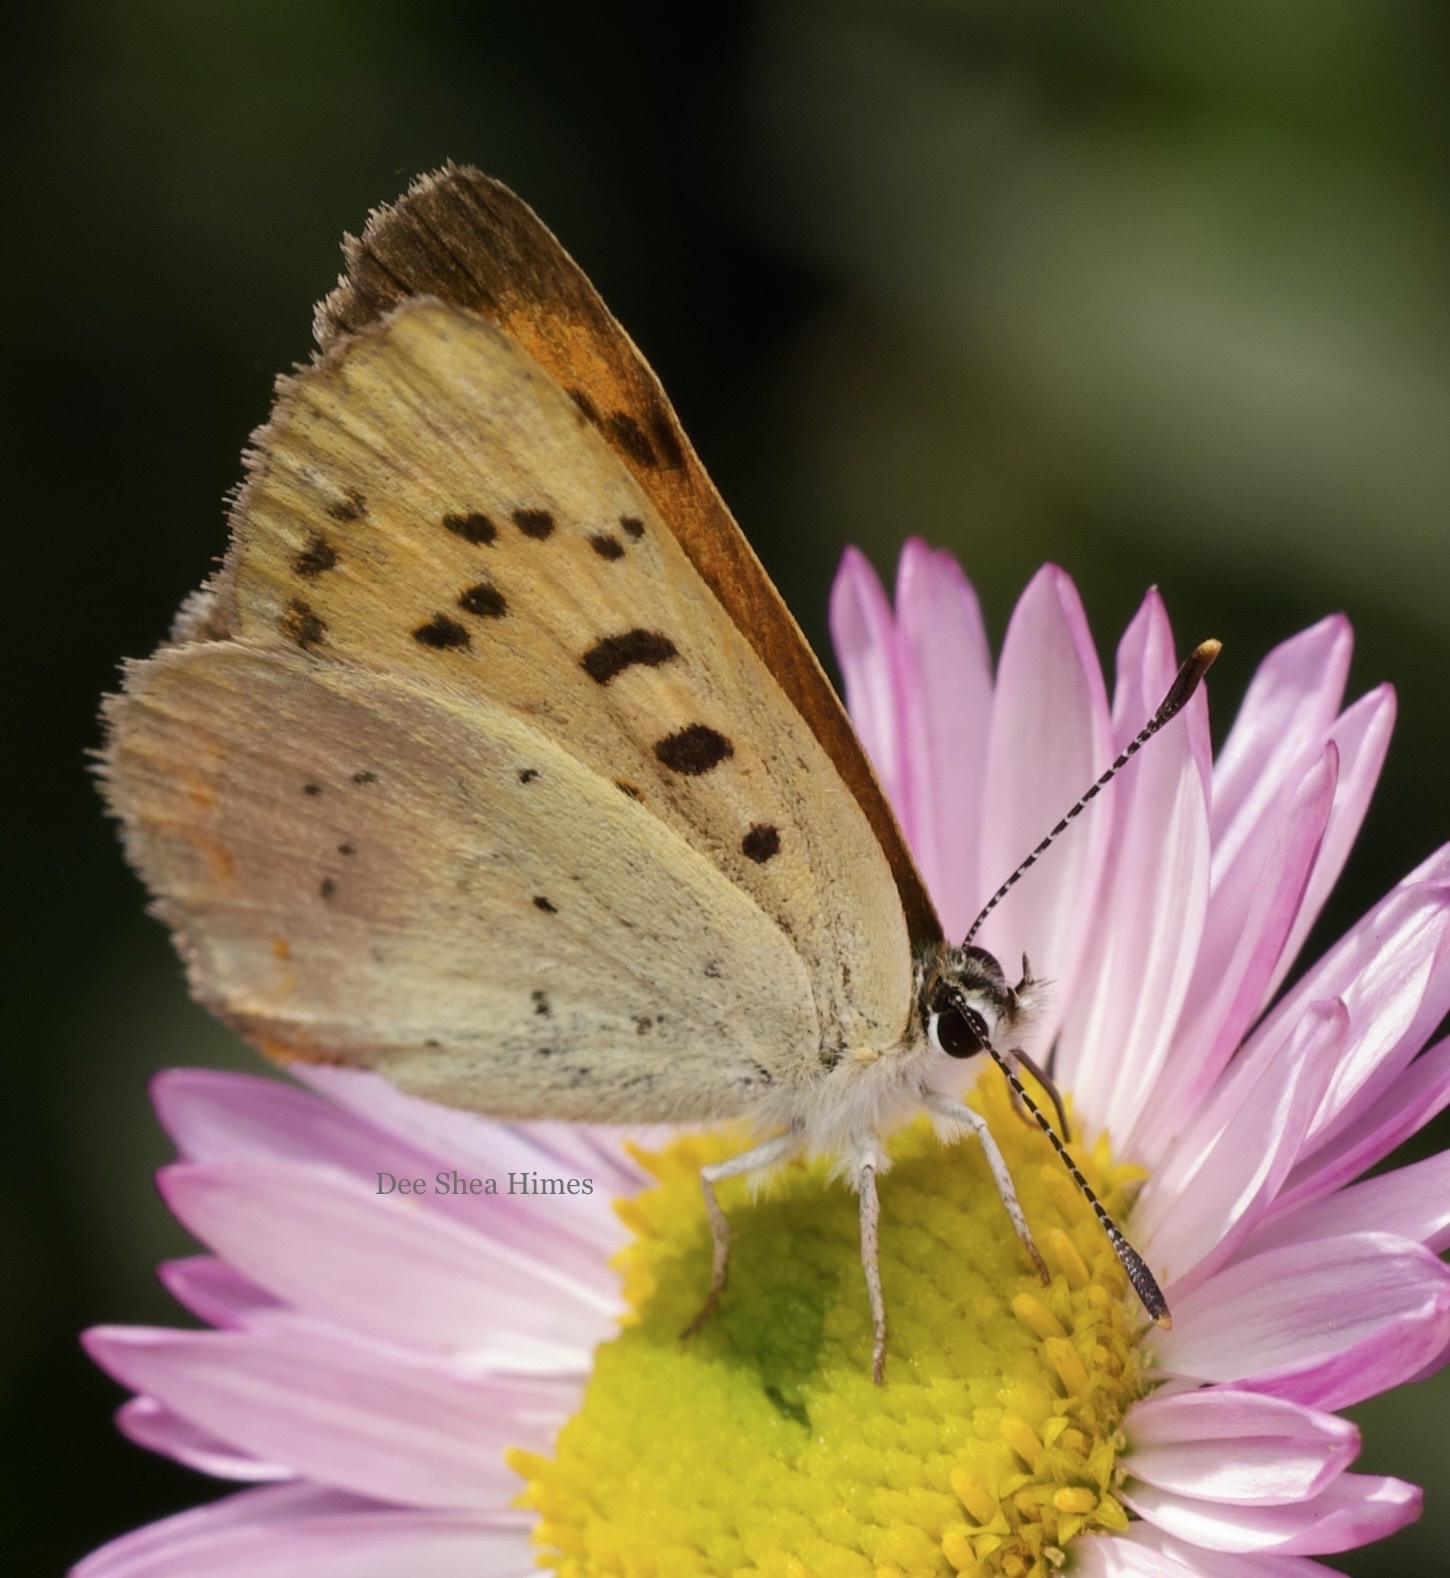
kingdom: Animalia
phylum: Arthropoda
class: Insecta
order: Lepidoptera
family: Lycaenidae
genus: Tharsalea
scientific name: Tharsalea nivalis
